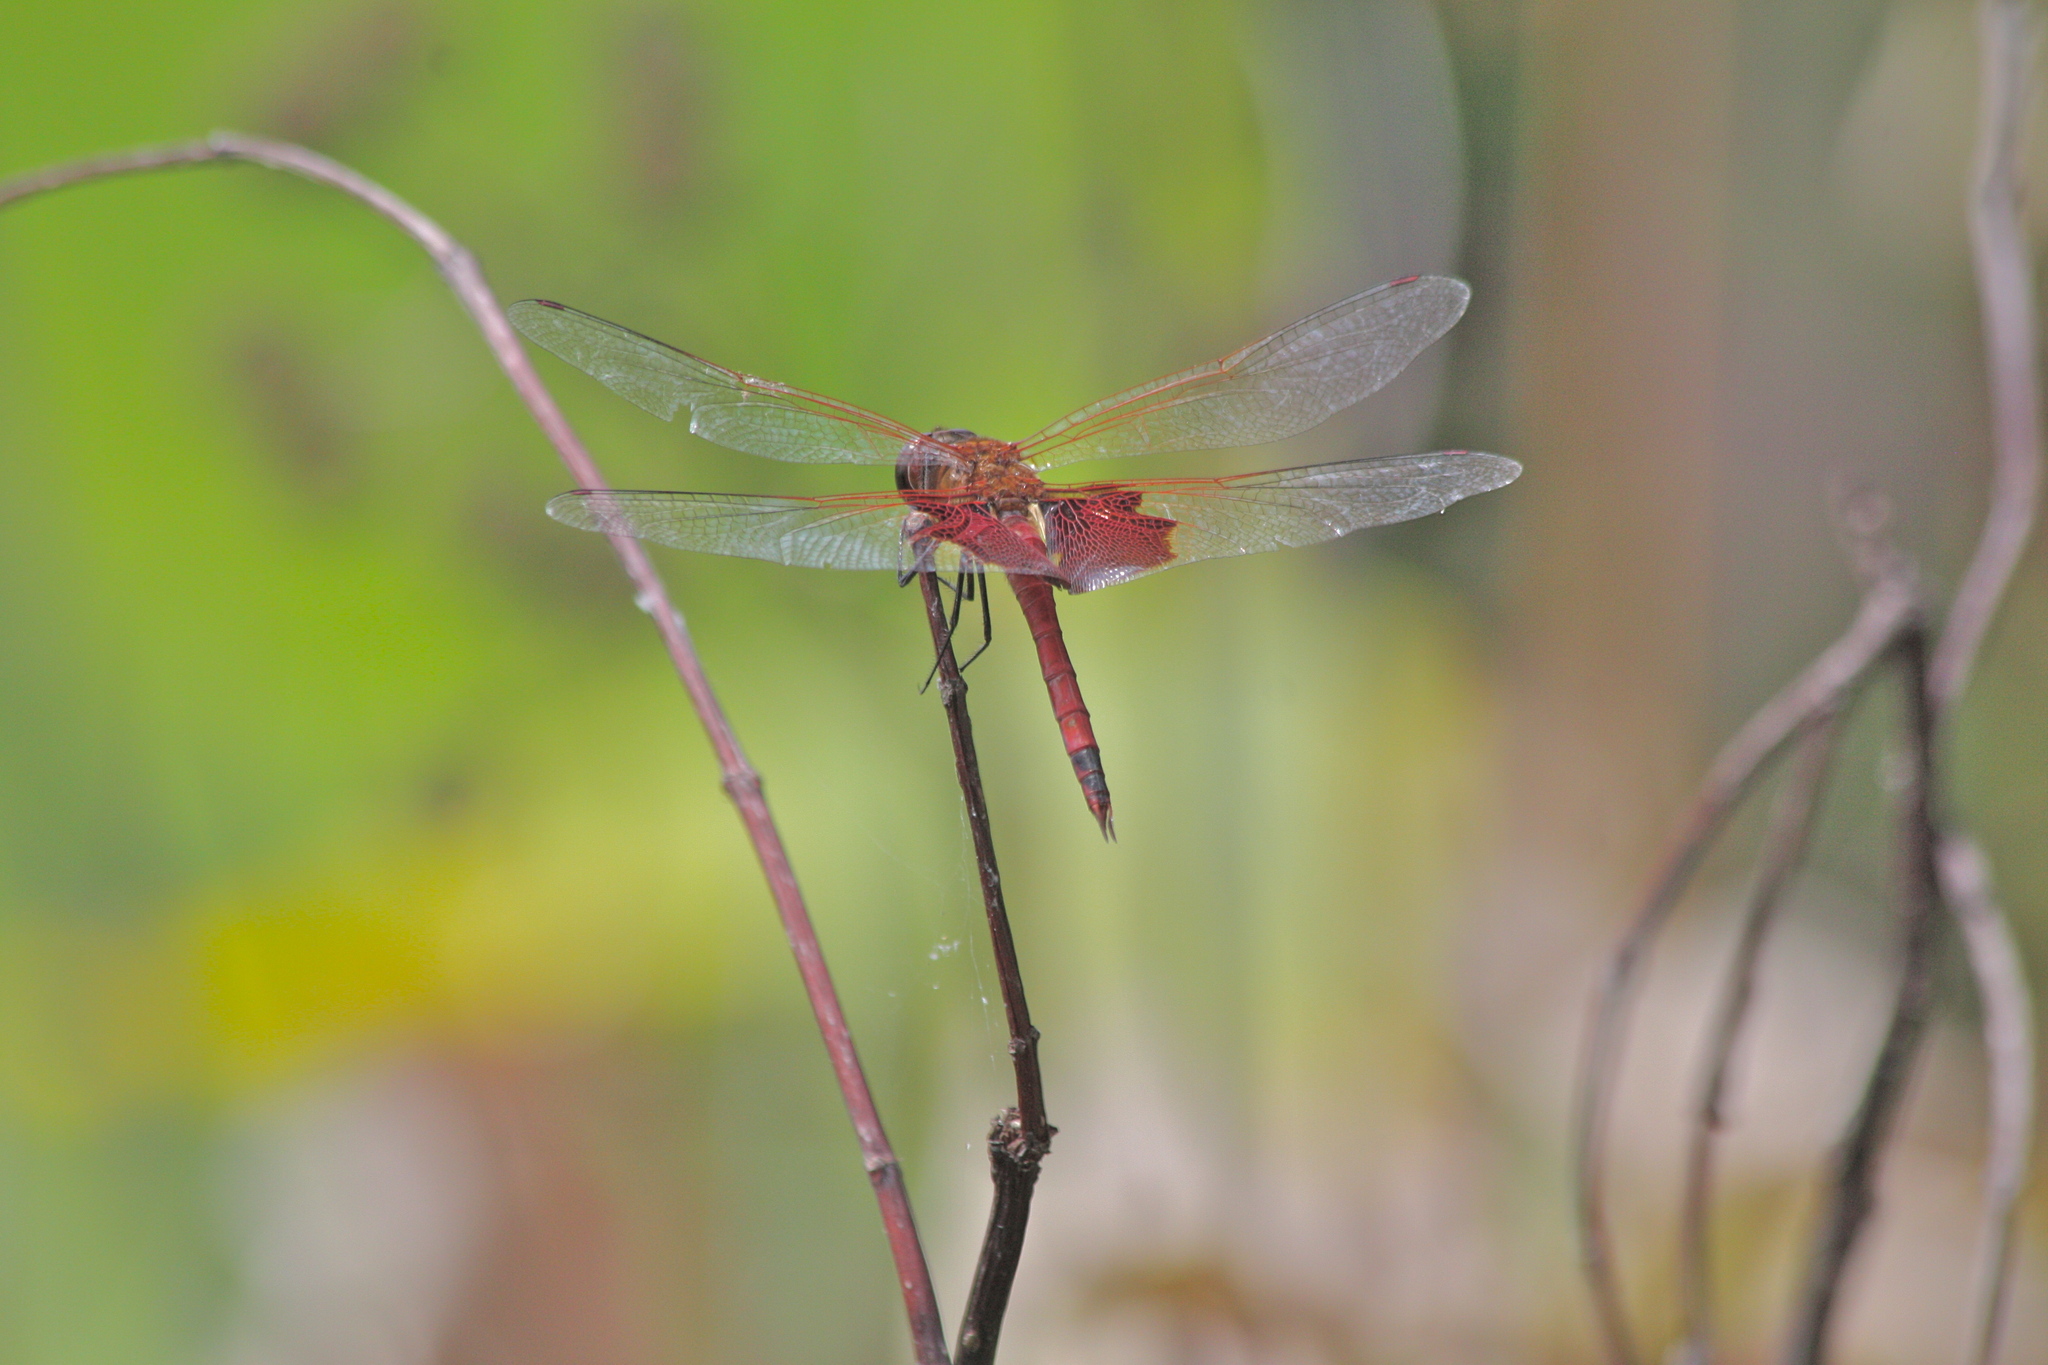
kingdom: Animalia
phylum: Arthropoda
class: Insecta
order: Odonata
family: Libellulidae
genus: Tramea
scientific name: Tramea carolina
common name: Carolina saddlebags
